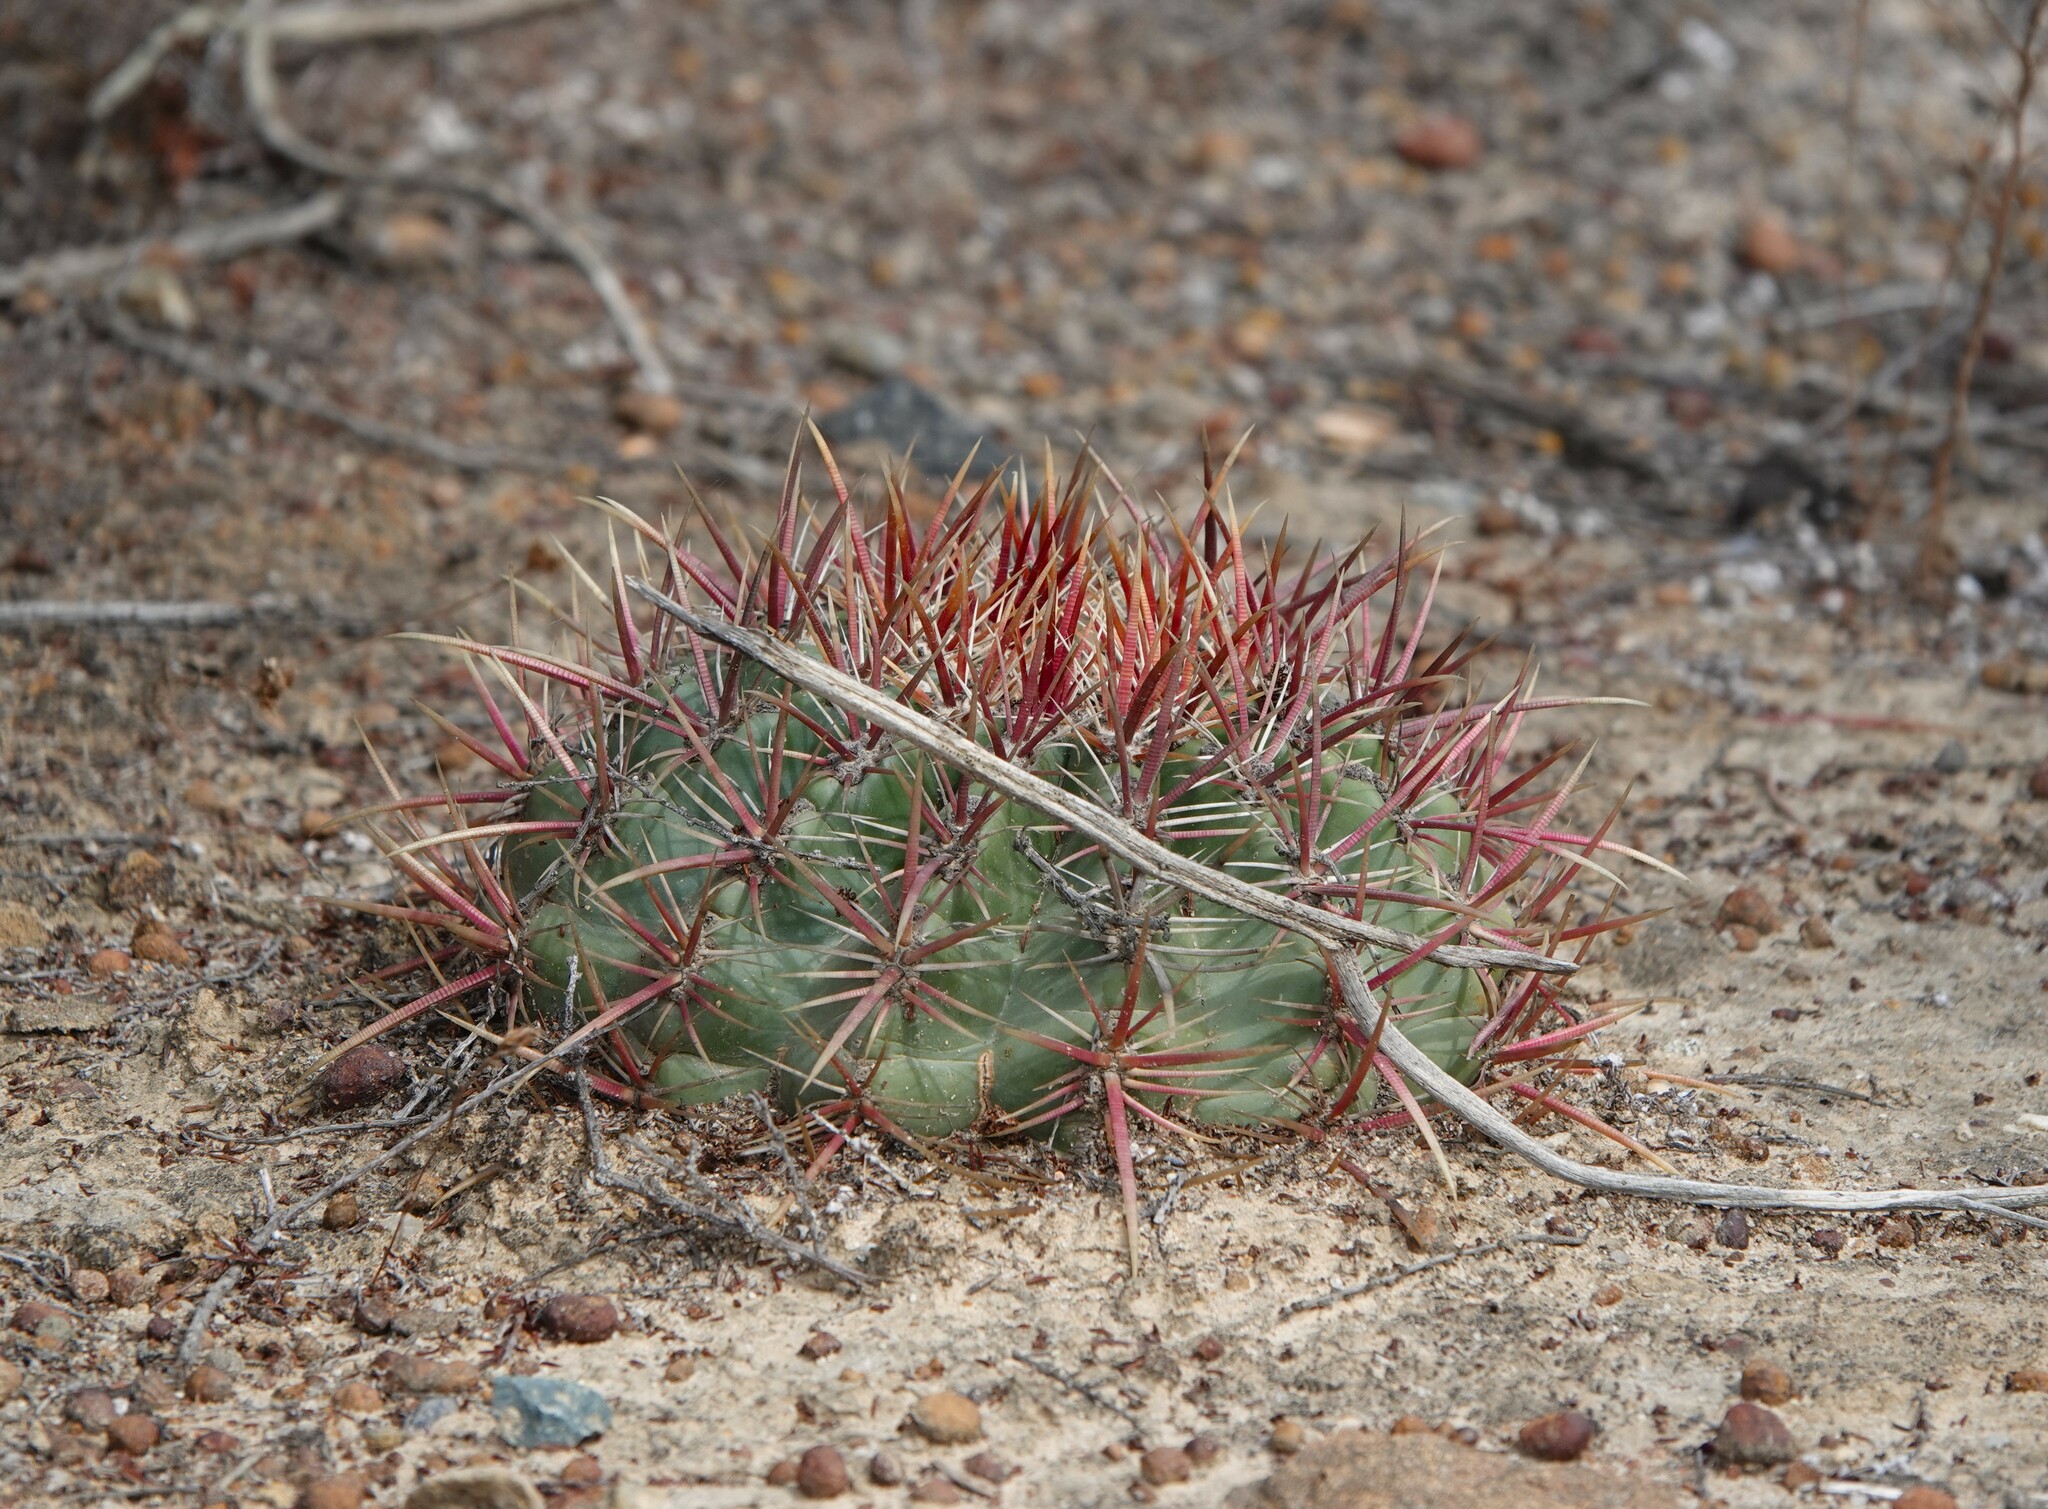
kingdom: Plantae
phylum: Tracheophyta
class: Magnoliopsida
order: Caryophyllales
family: Cactaceae
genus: Ferocactus
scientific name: Ferocactus viridescens
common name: San diego barrel cactus
